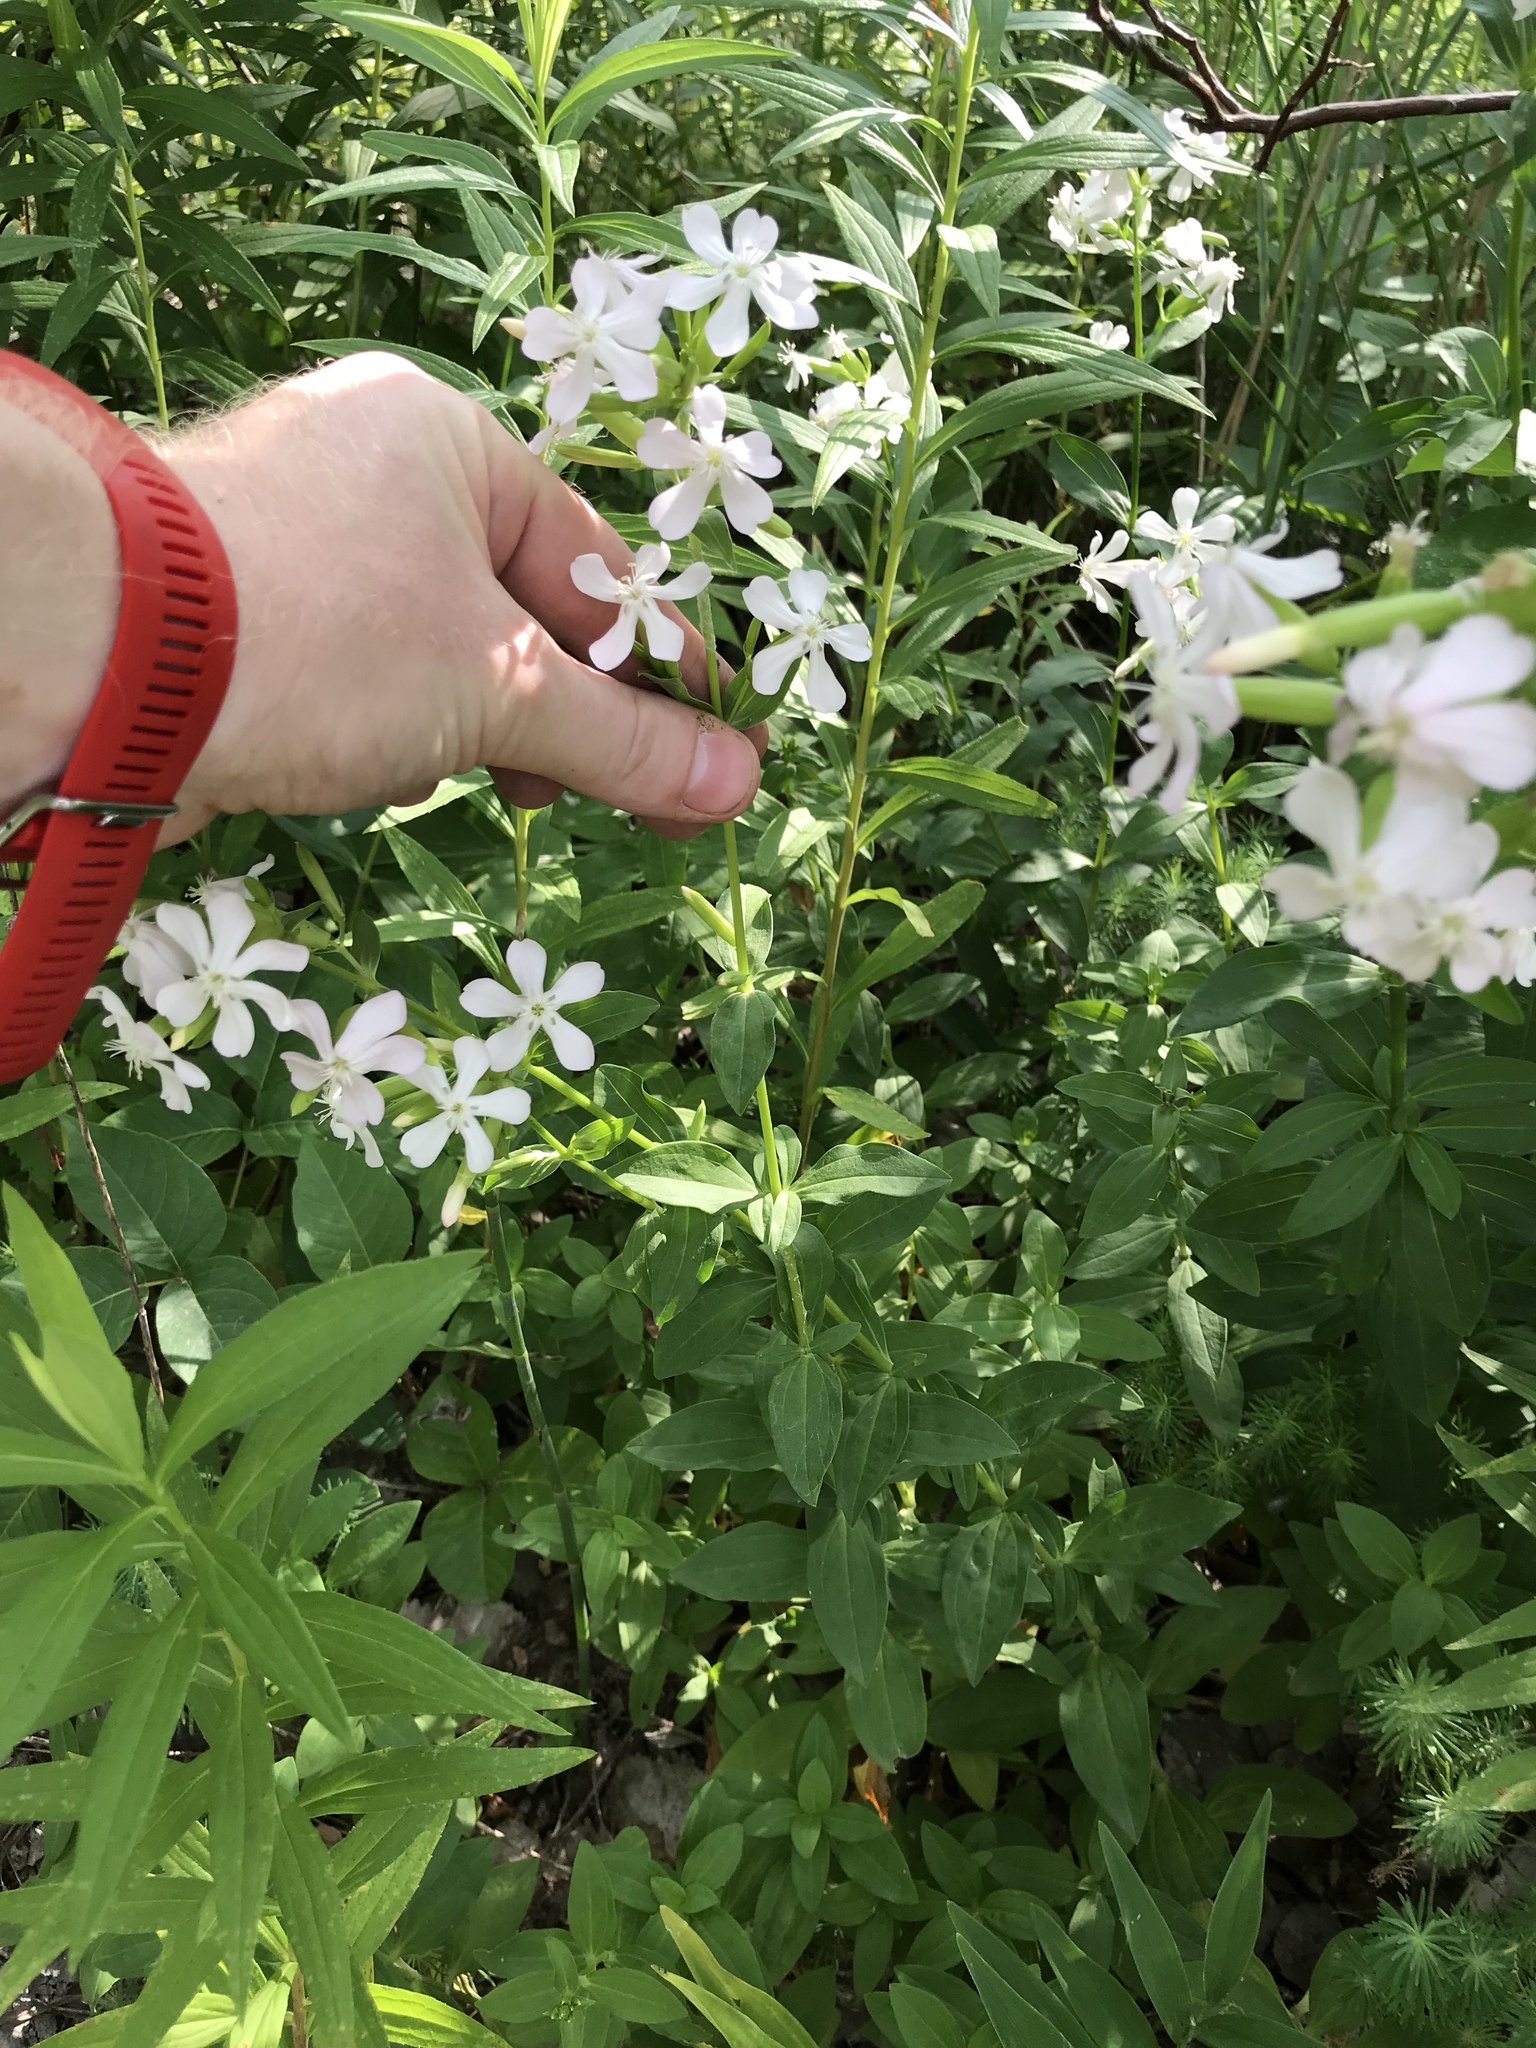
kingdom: Plantae
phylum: Tracheophyta
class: Magnoliopsida
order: Caryophyllales
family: Caryophyllaceae
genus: Saponaria
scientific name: Saponaria officinalis
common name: Soapwort
